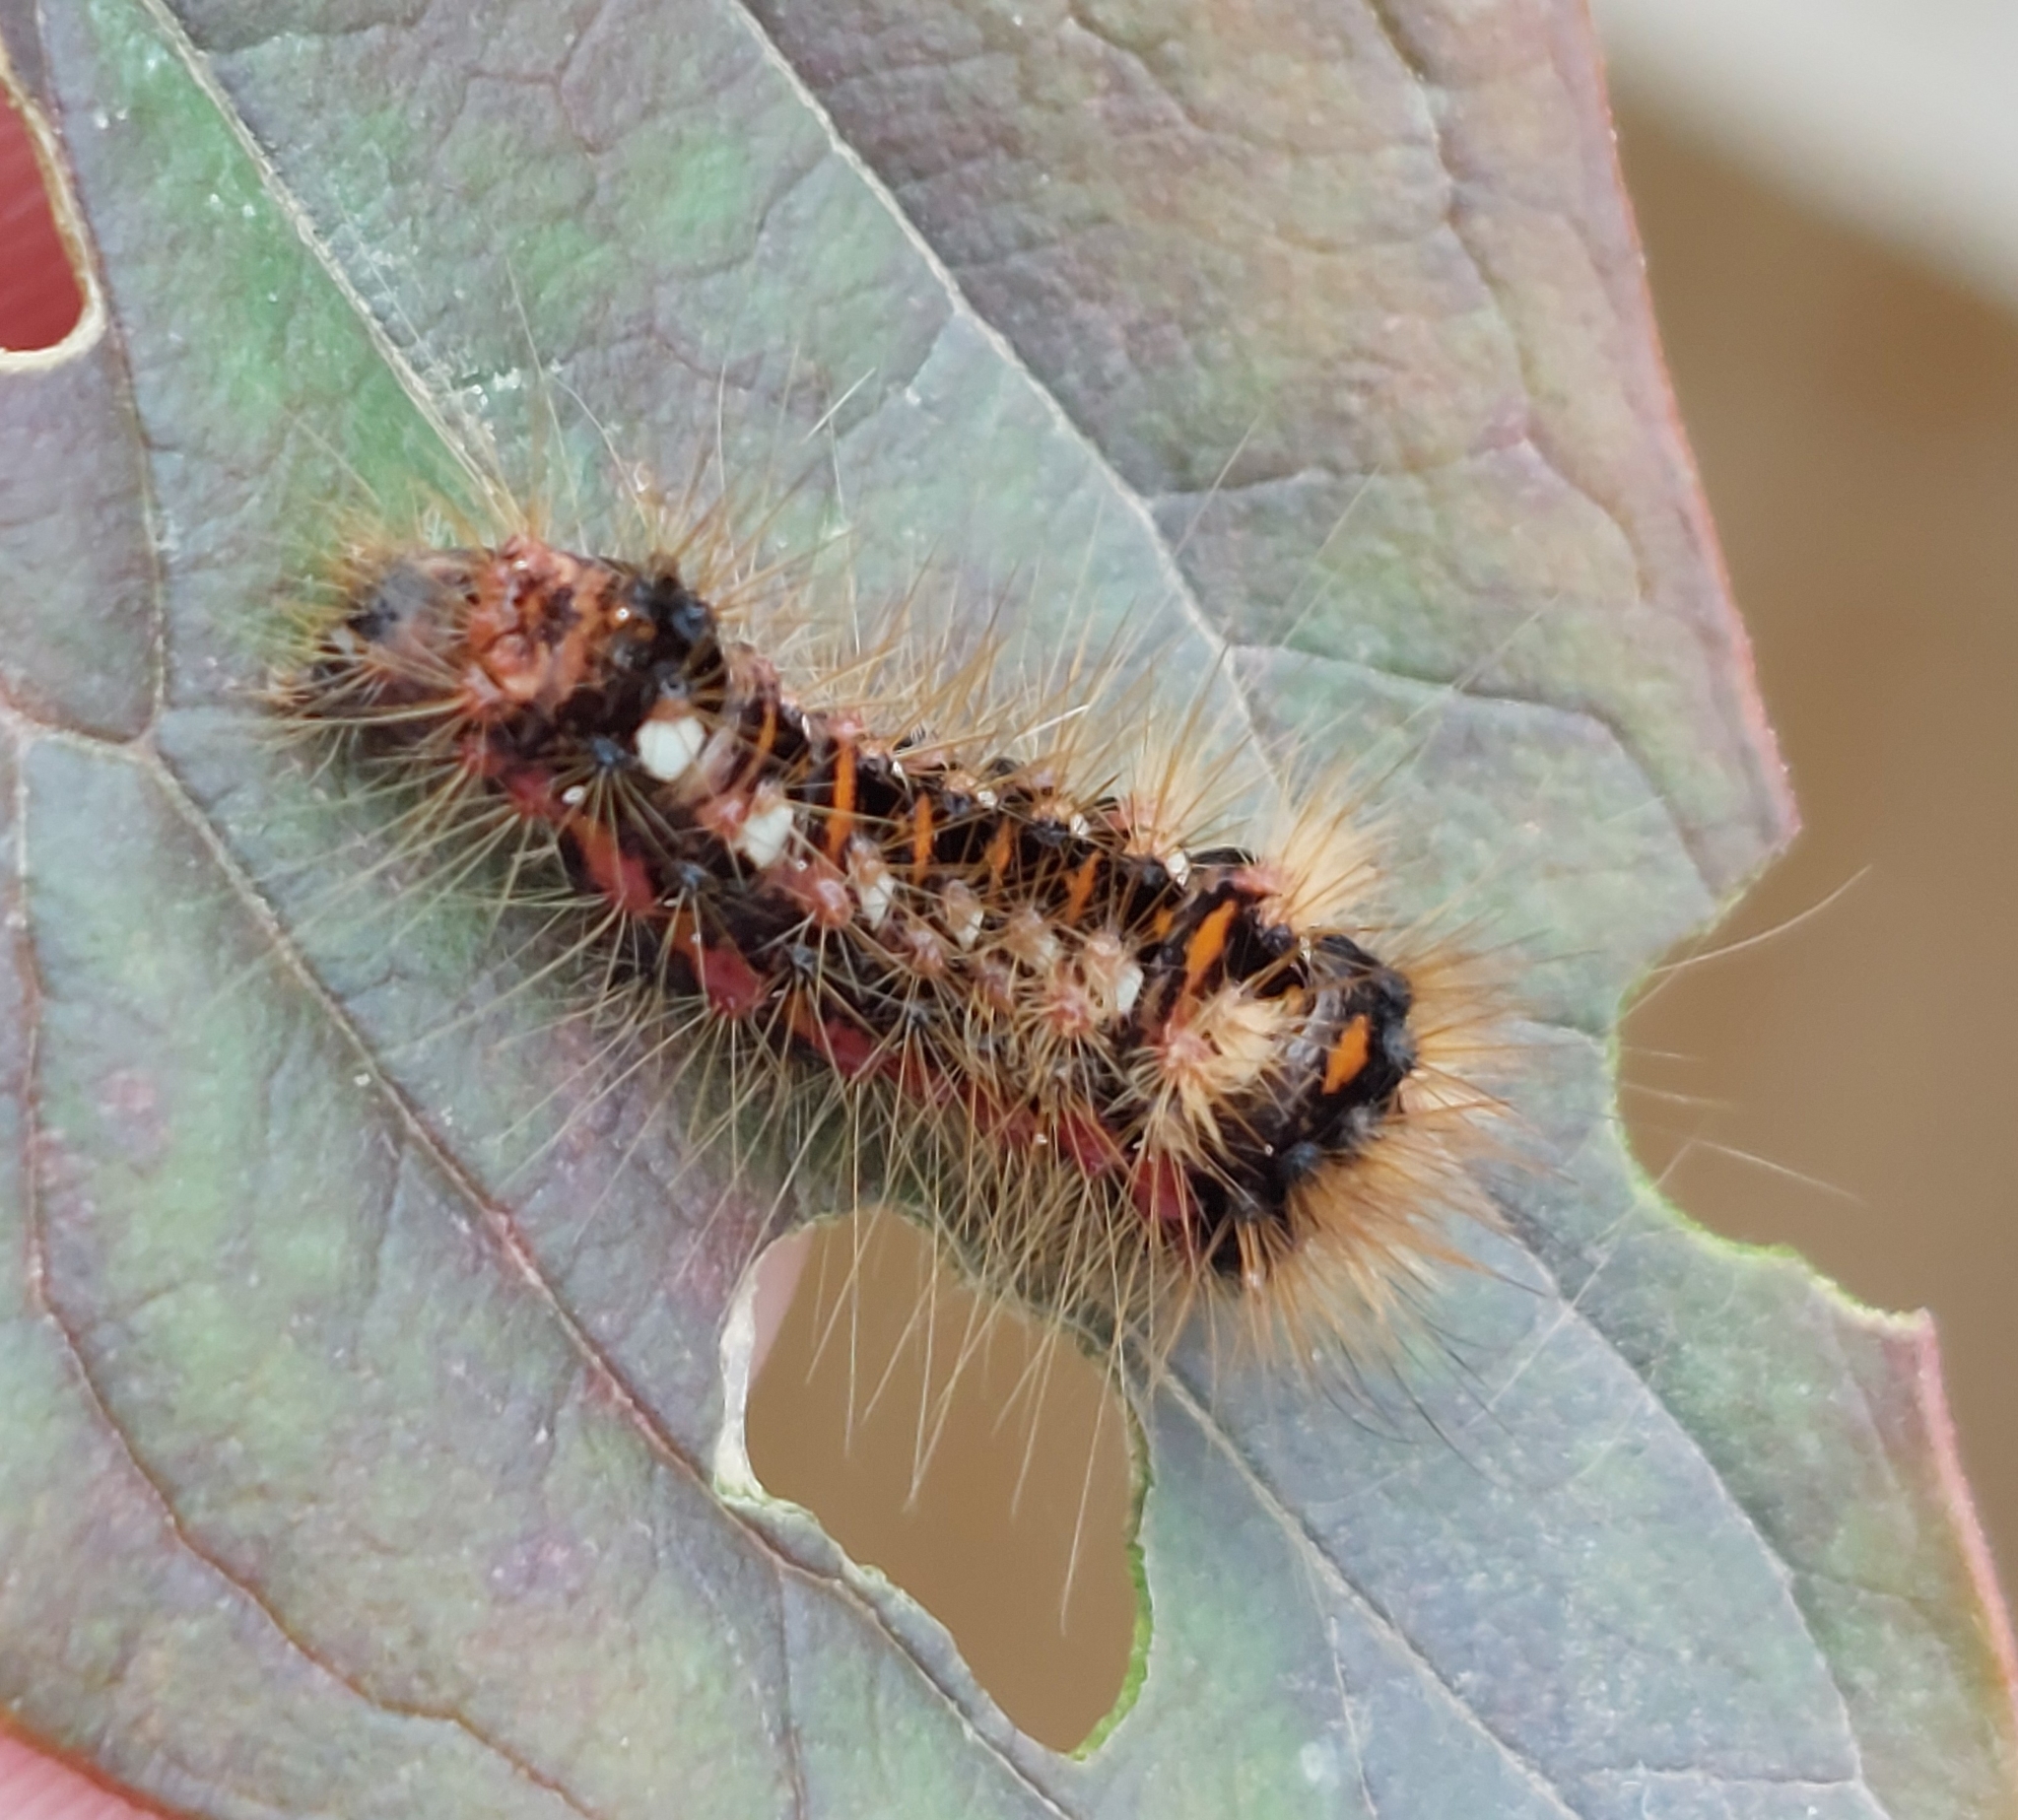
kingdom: Animalia
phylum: Arthropoda
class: Insecta
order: Lepidoptera
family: Noctuidae
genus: Acronicta
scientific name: Acronicta rumicis
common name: Knot grass
